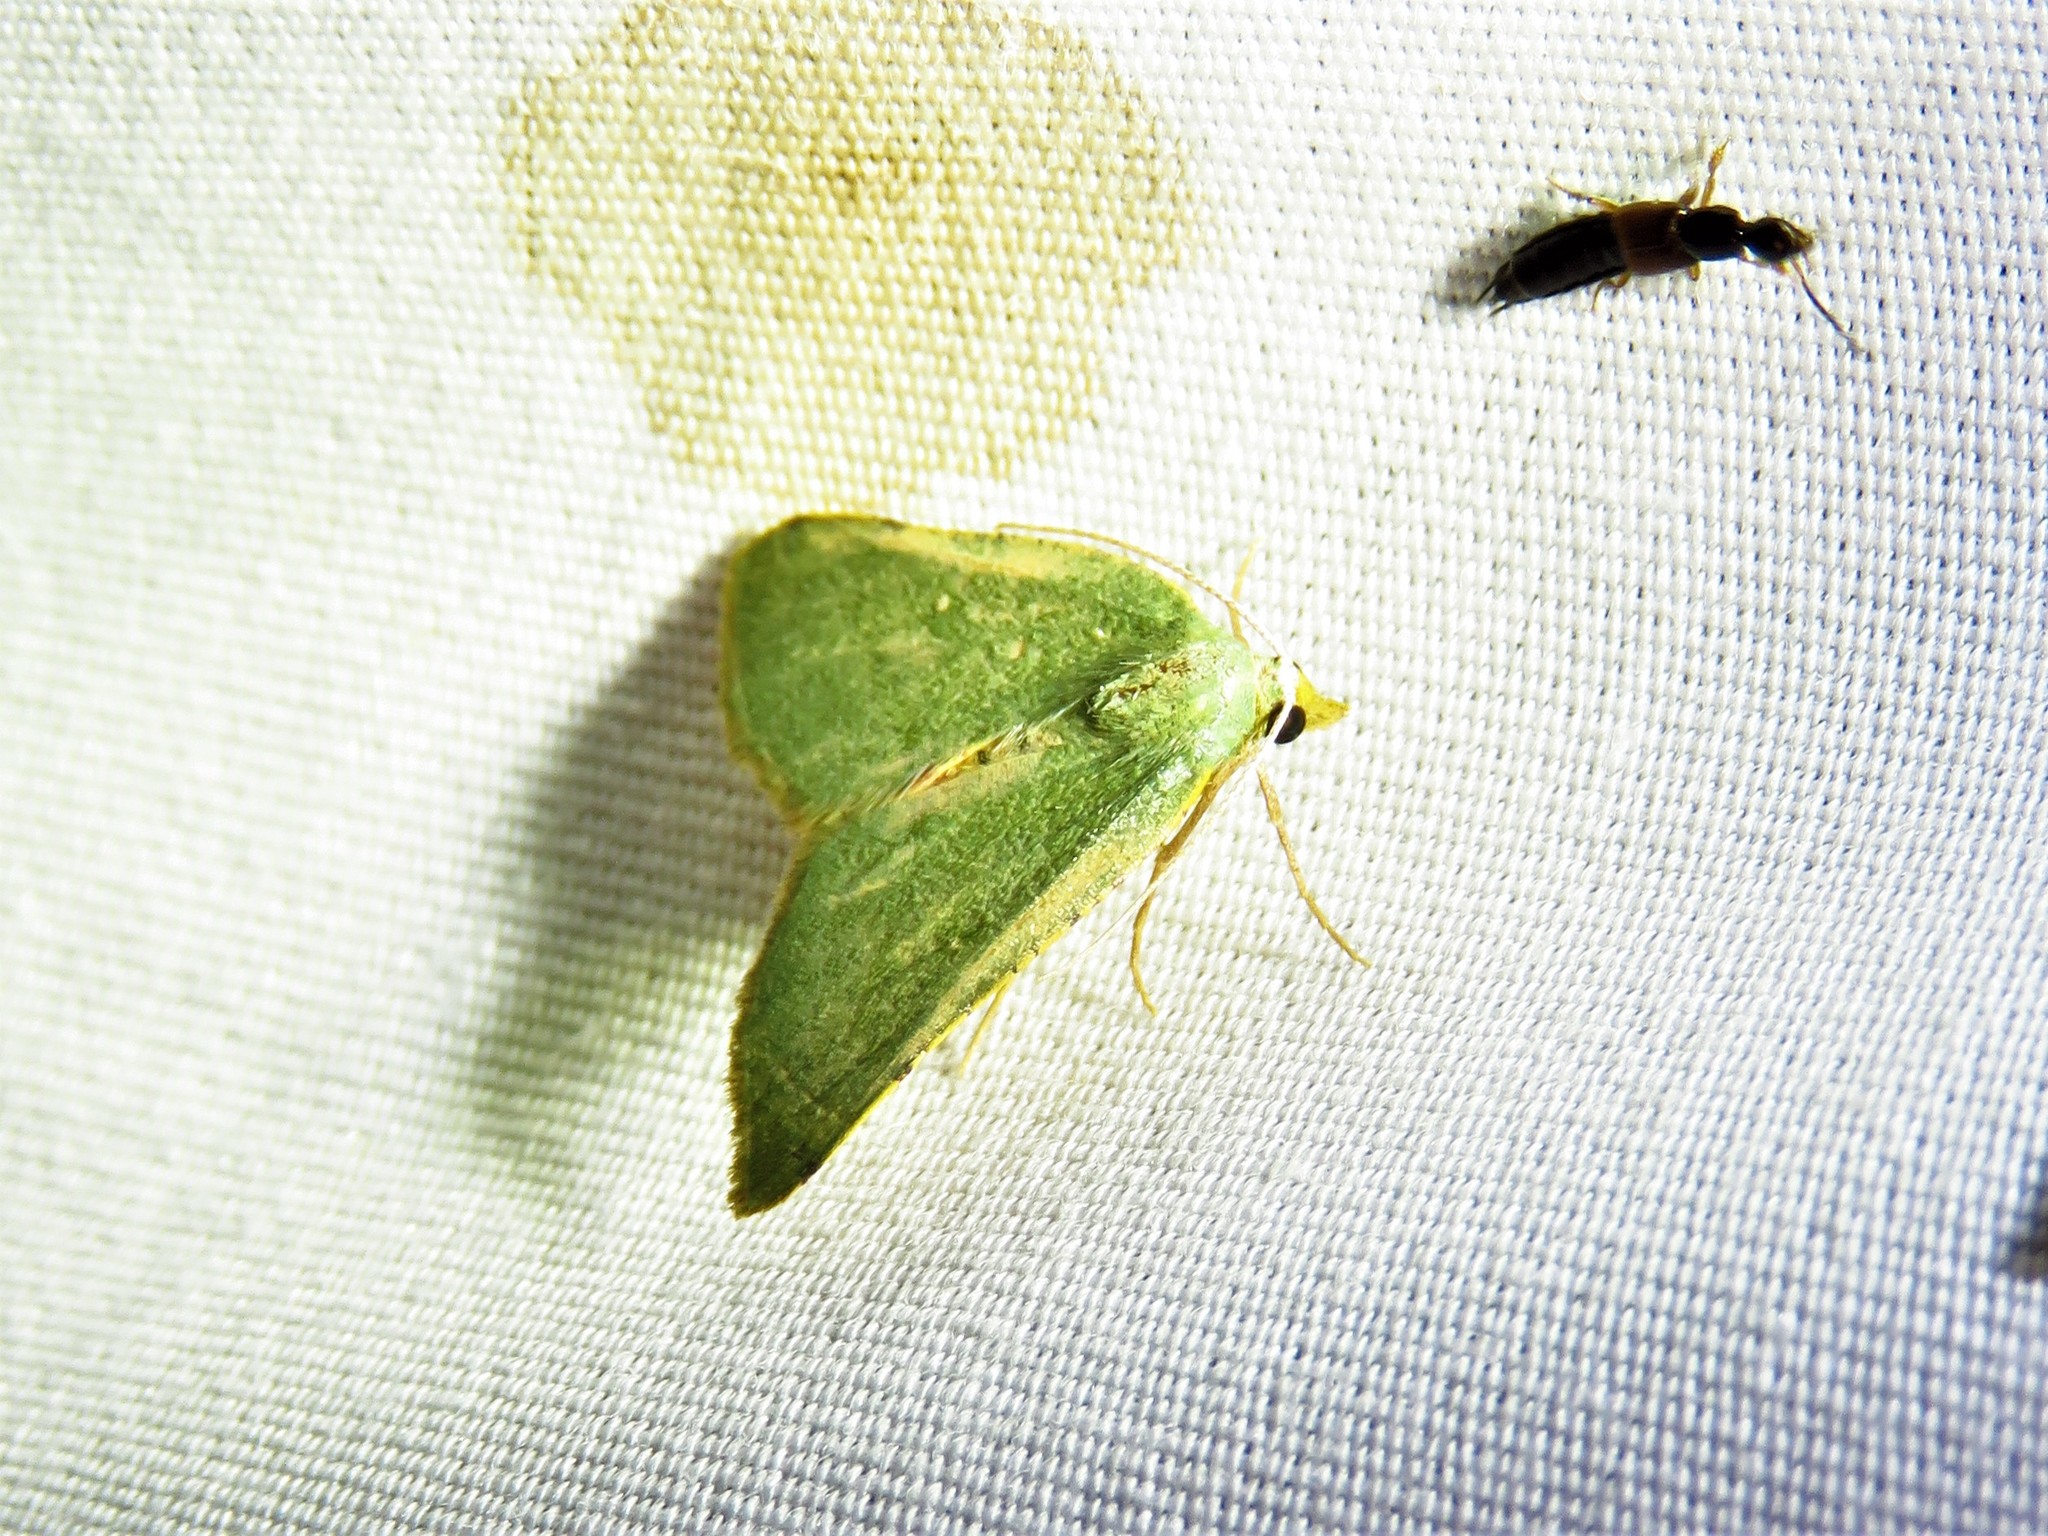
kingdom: Animalia
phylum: Arthropoda
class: Insecta
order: Lepidoptera
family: Geometridae
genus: Chloraspilates
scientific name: Chloraspilates bicoloraria
